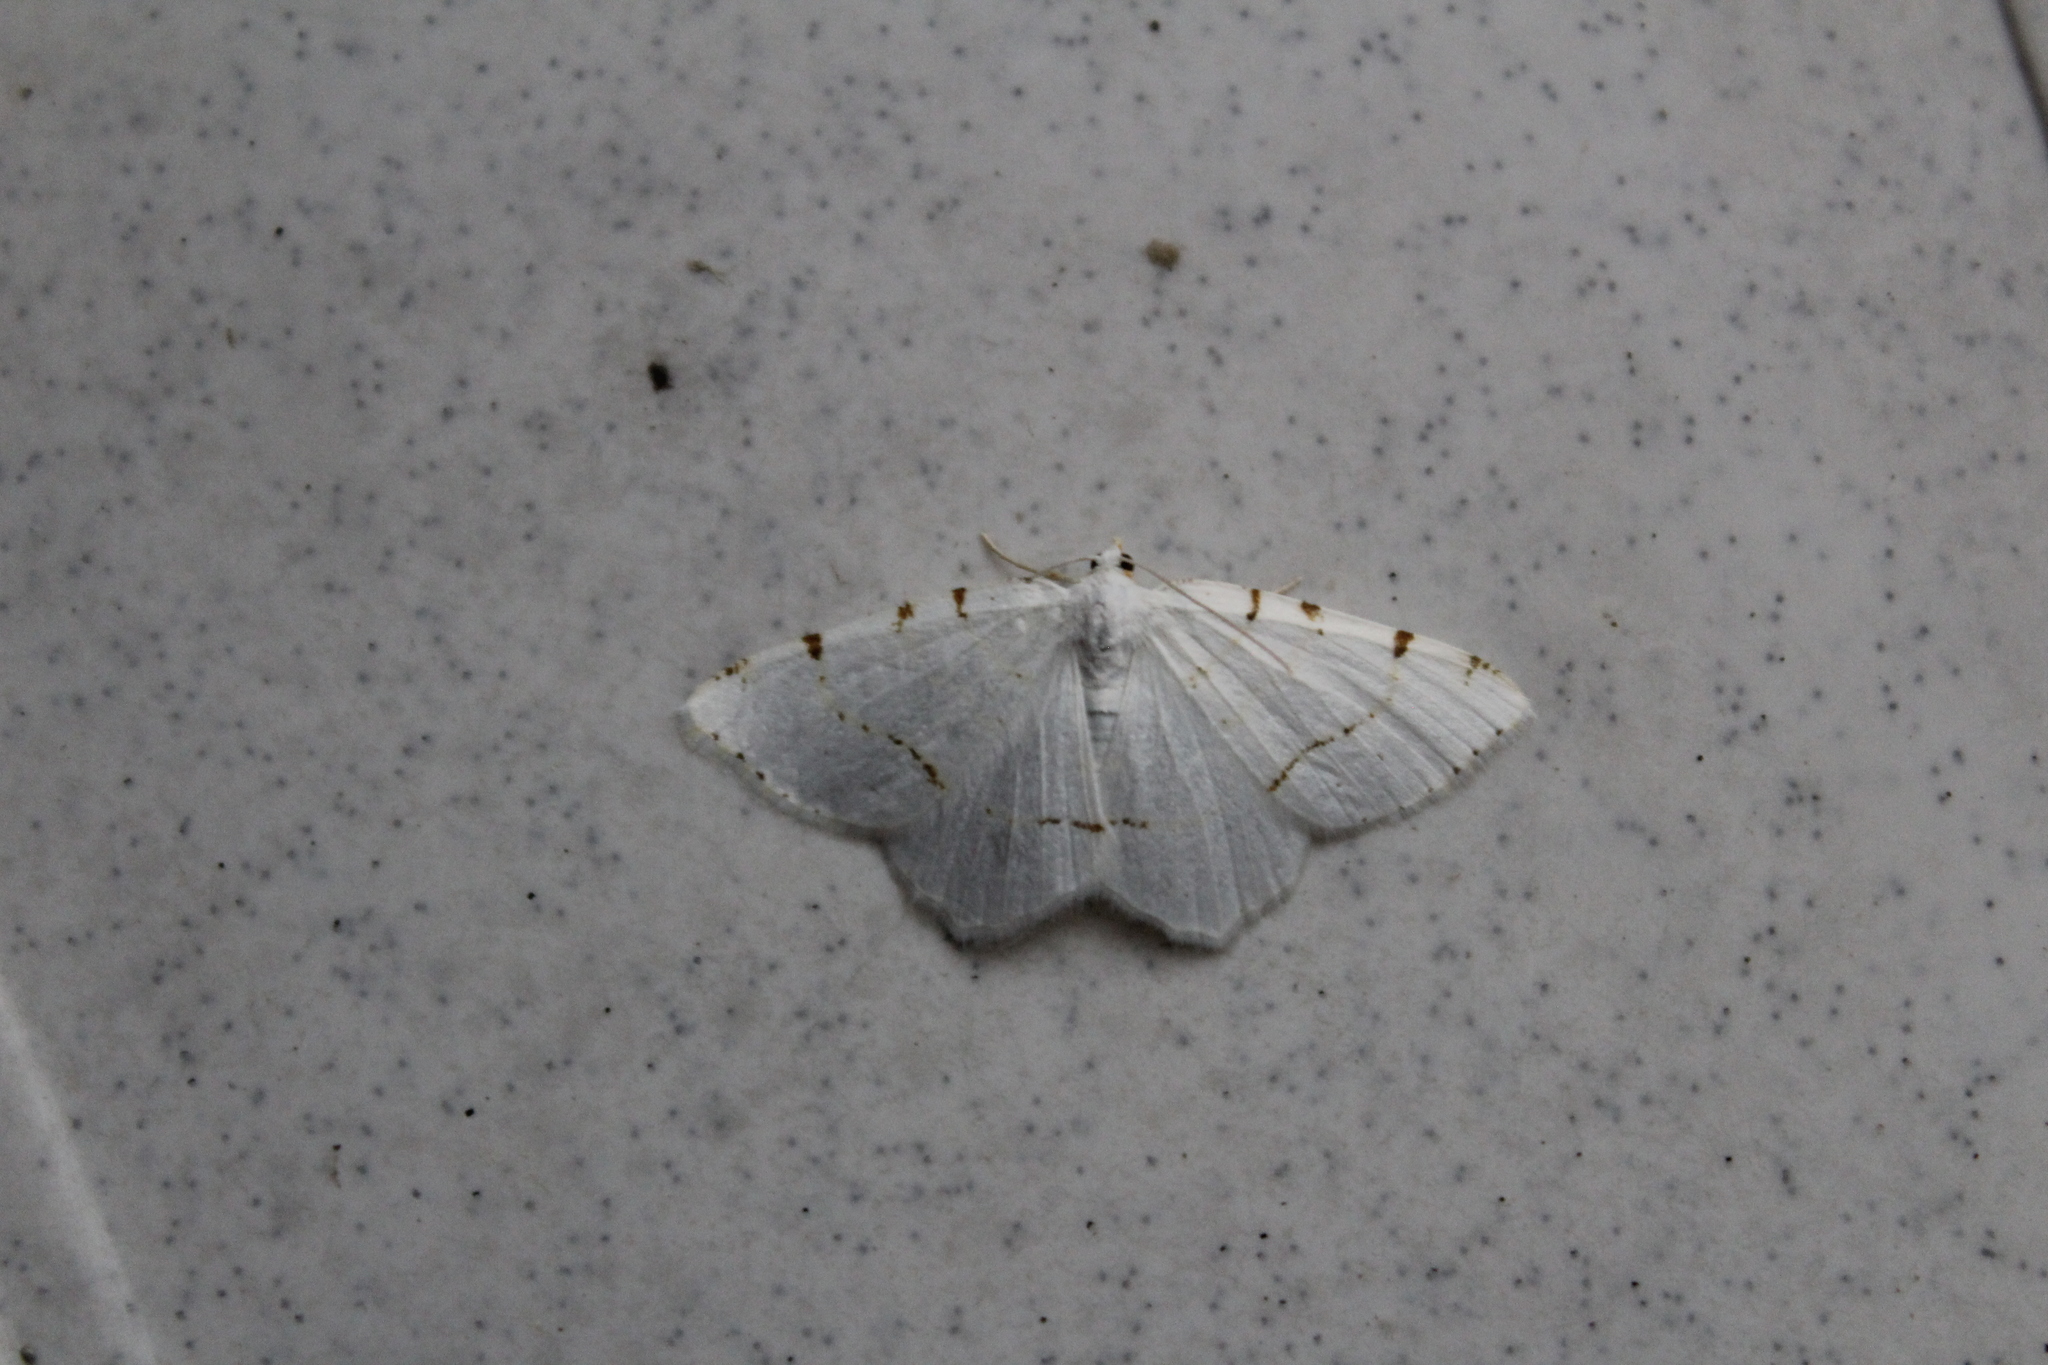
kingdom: Animalia
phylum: Arthropoda
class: Insecta
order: Lepidoptera
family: Geometridae
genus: Macaria
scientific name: Macaria pustularia
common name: Lesser maple spanworm moth
